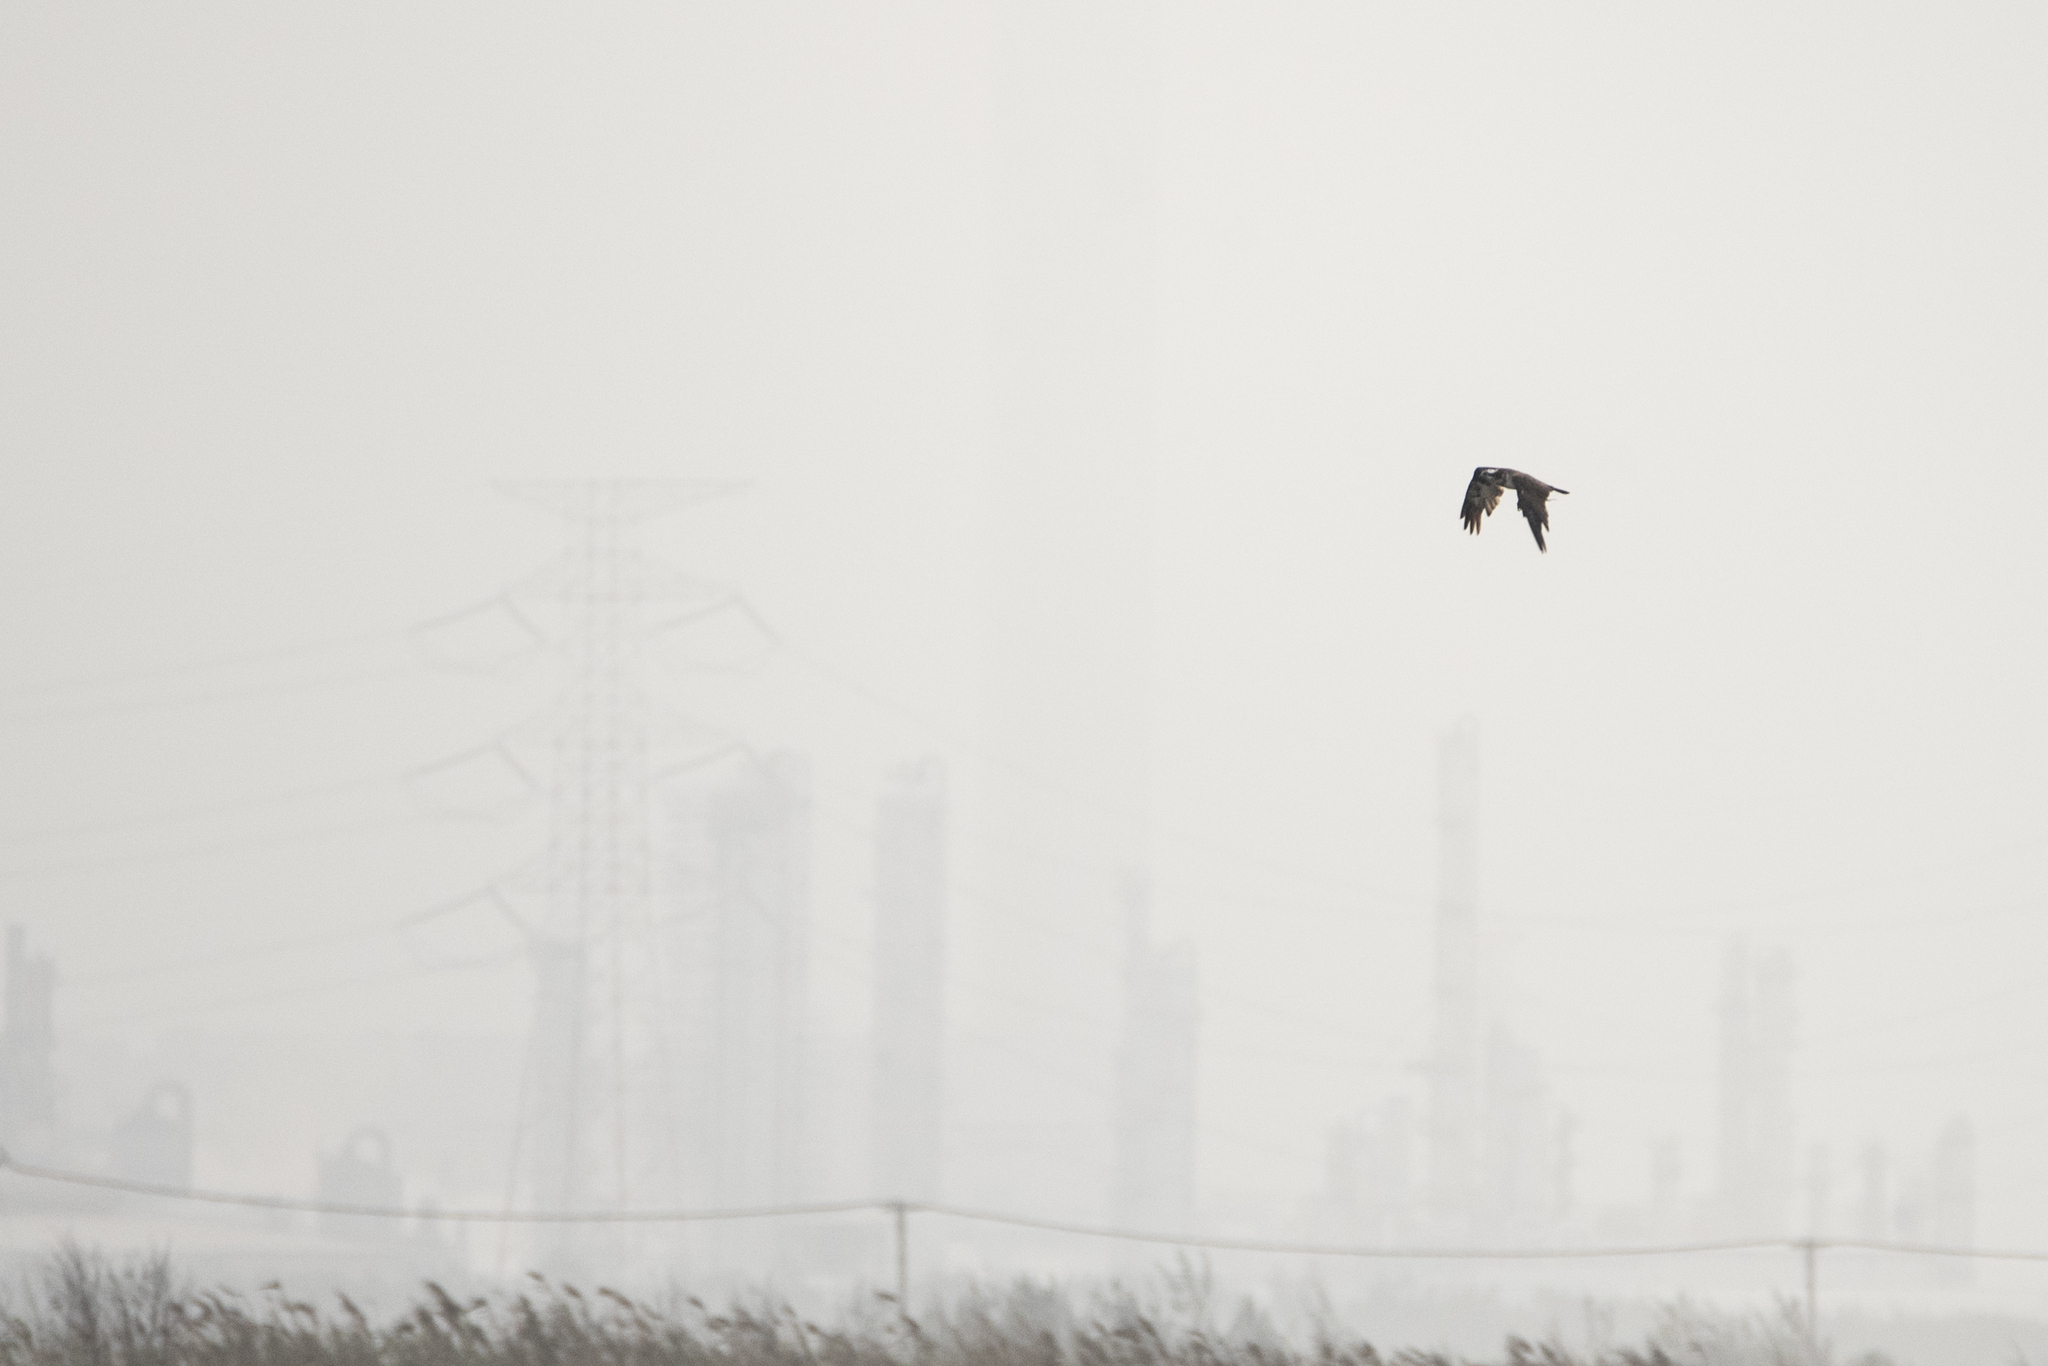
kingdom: Animalia
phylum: Chordata
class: Aves
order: Accipitriformes
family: Pandionidae
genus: Pandion
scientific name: Pandion haliaetus
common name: Osprey
